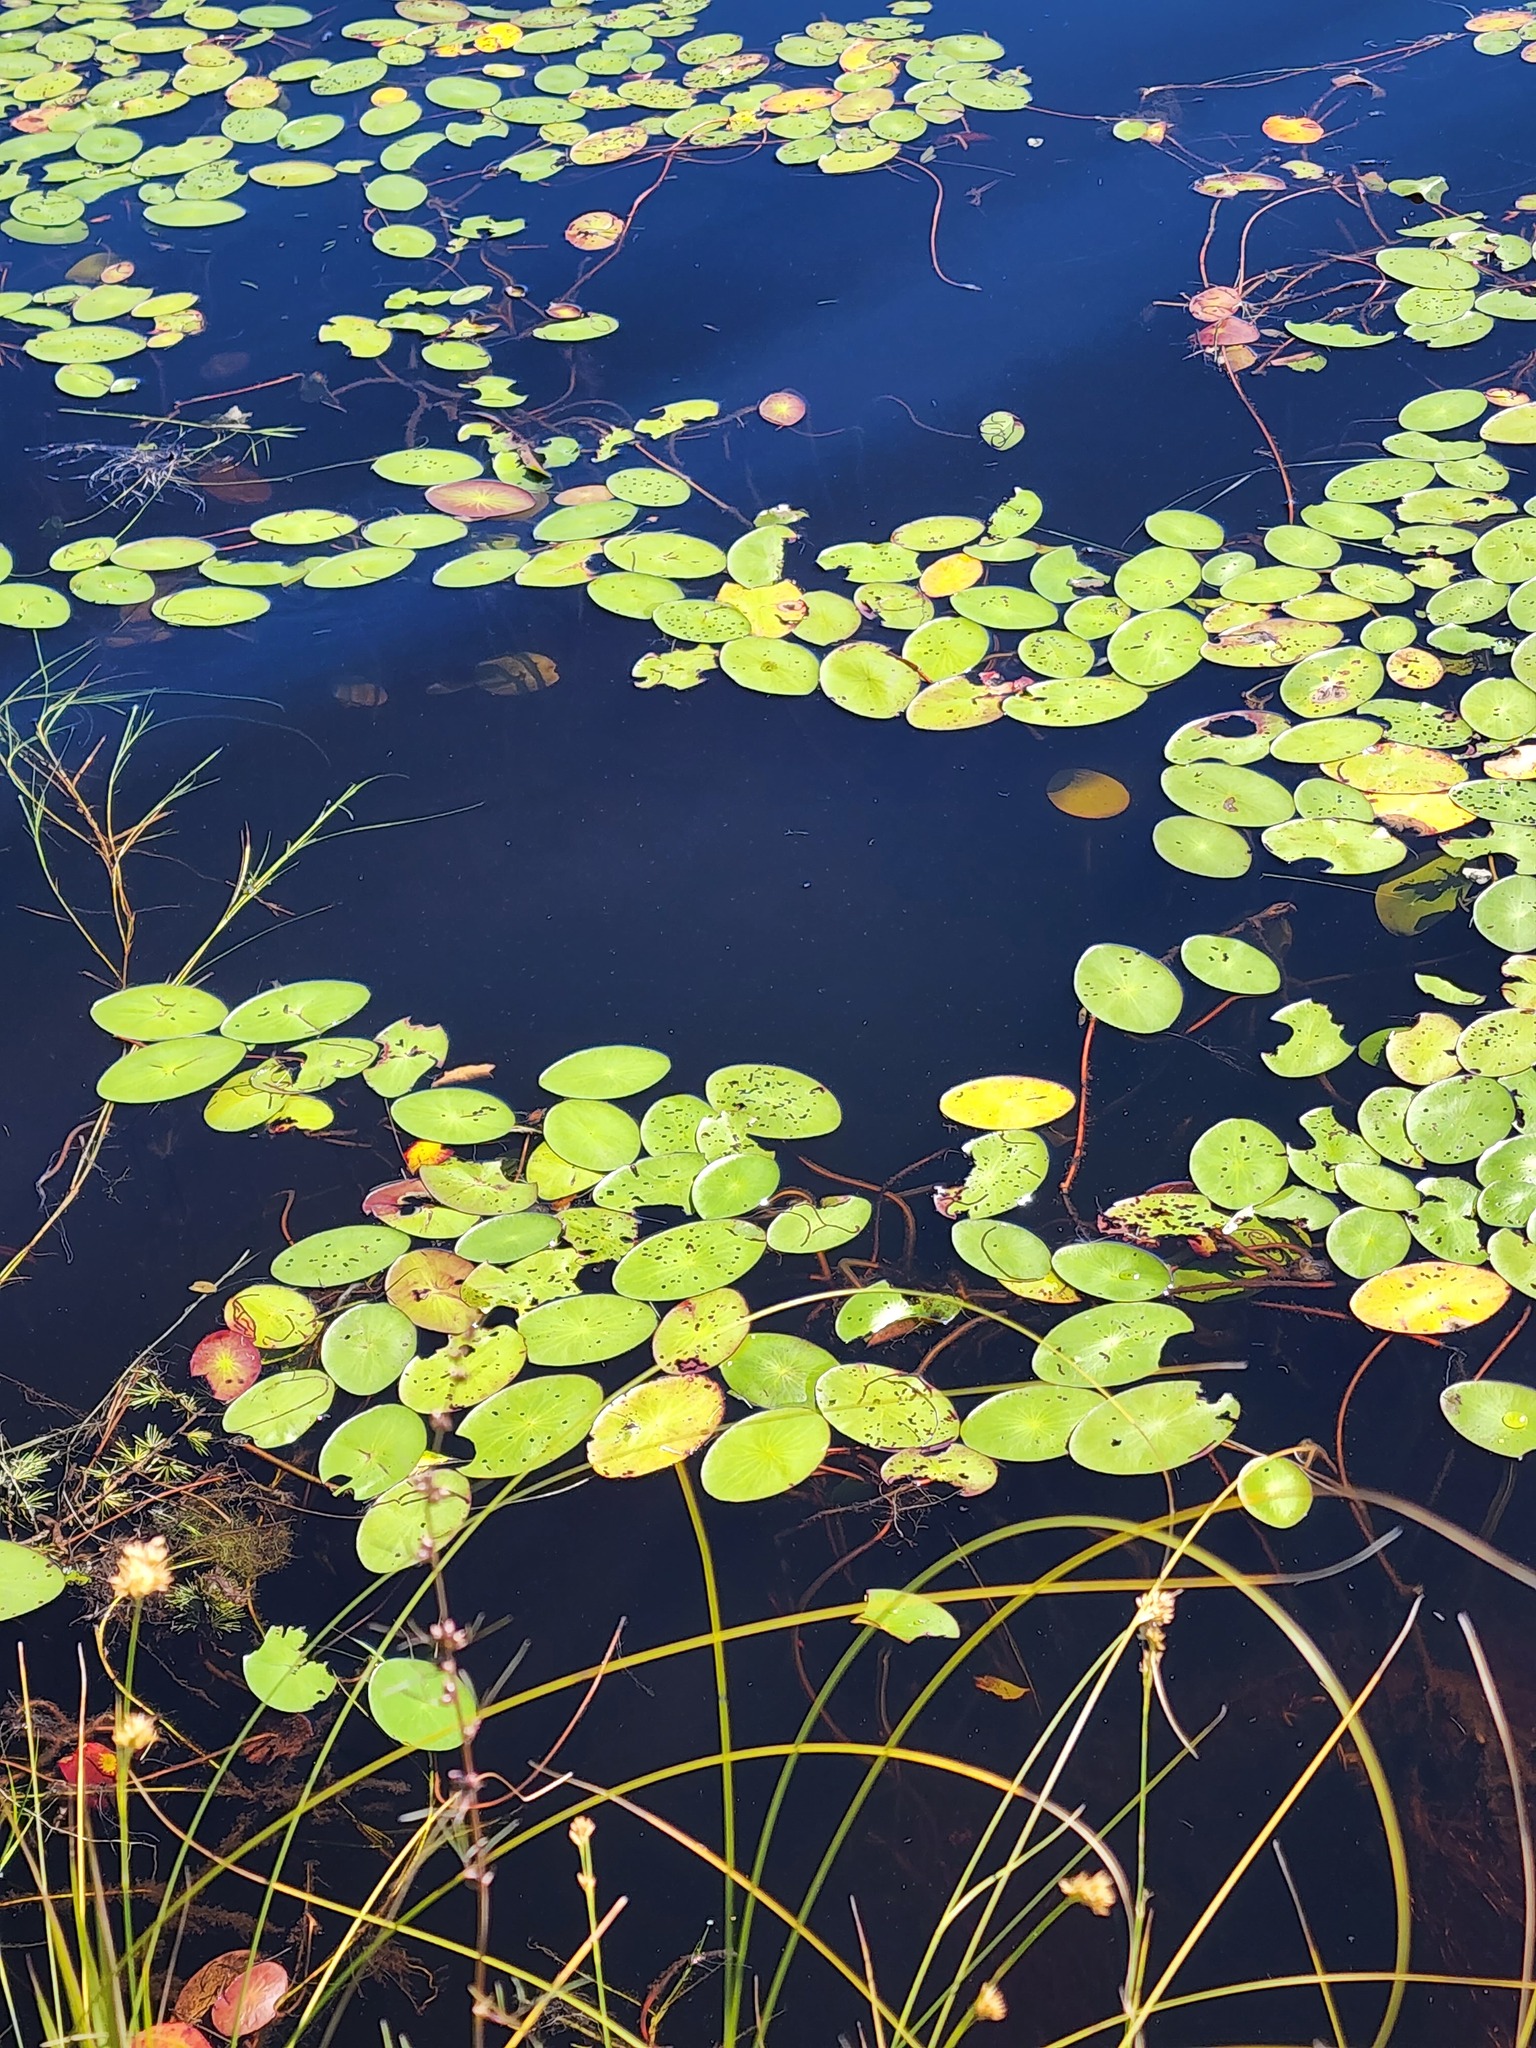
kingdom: Plantae
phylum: Tracheophyta
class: Magnoliopsida
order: Nymphaeales
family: Cabombaceae
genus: Brasenia
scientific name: Brasenia schreberi
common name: Water-shield
